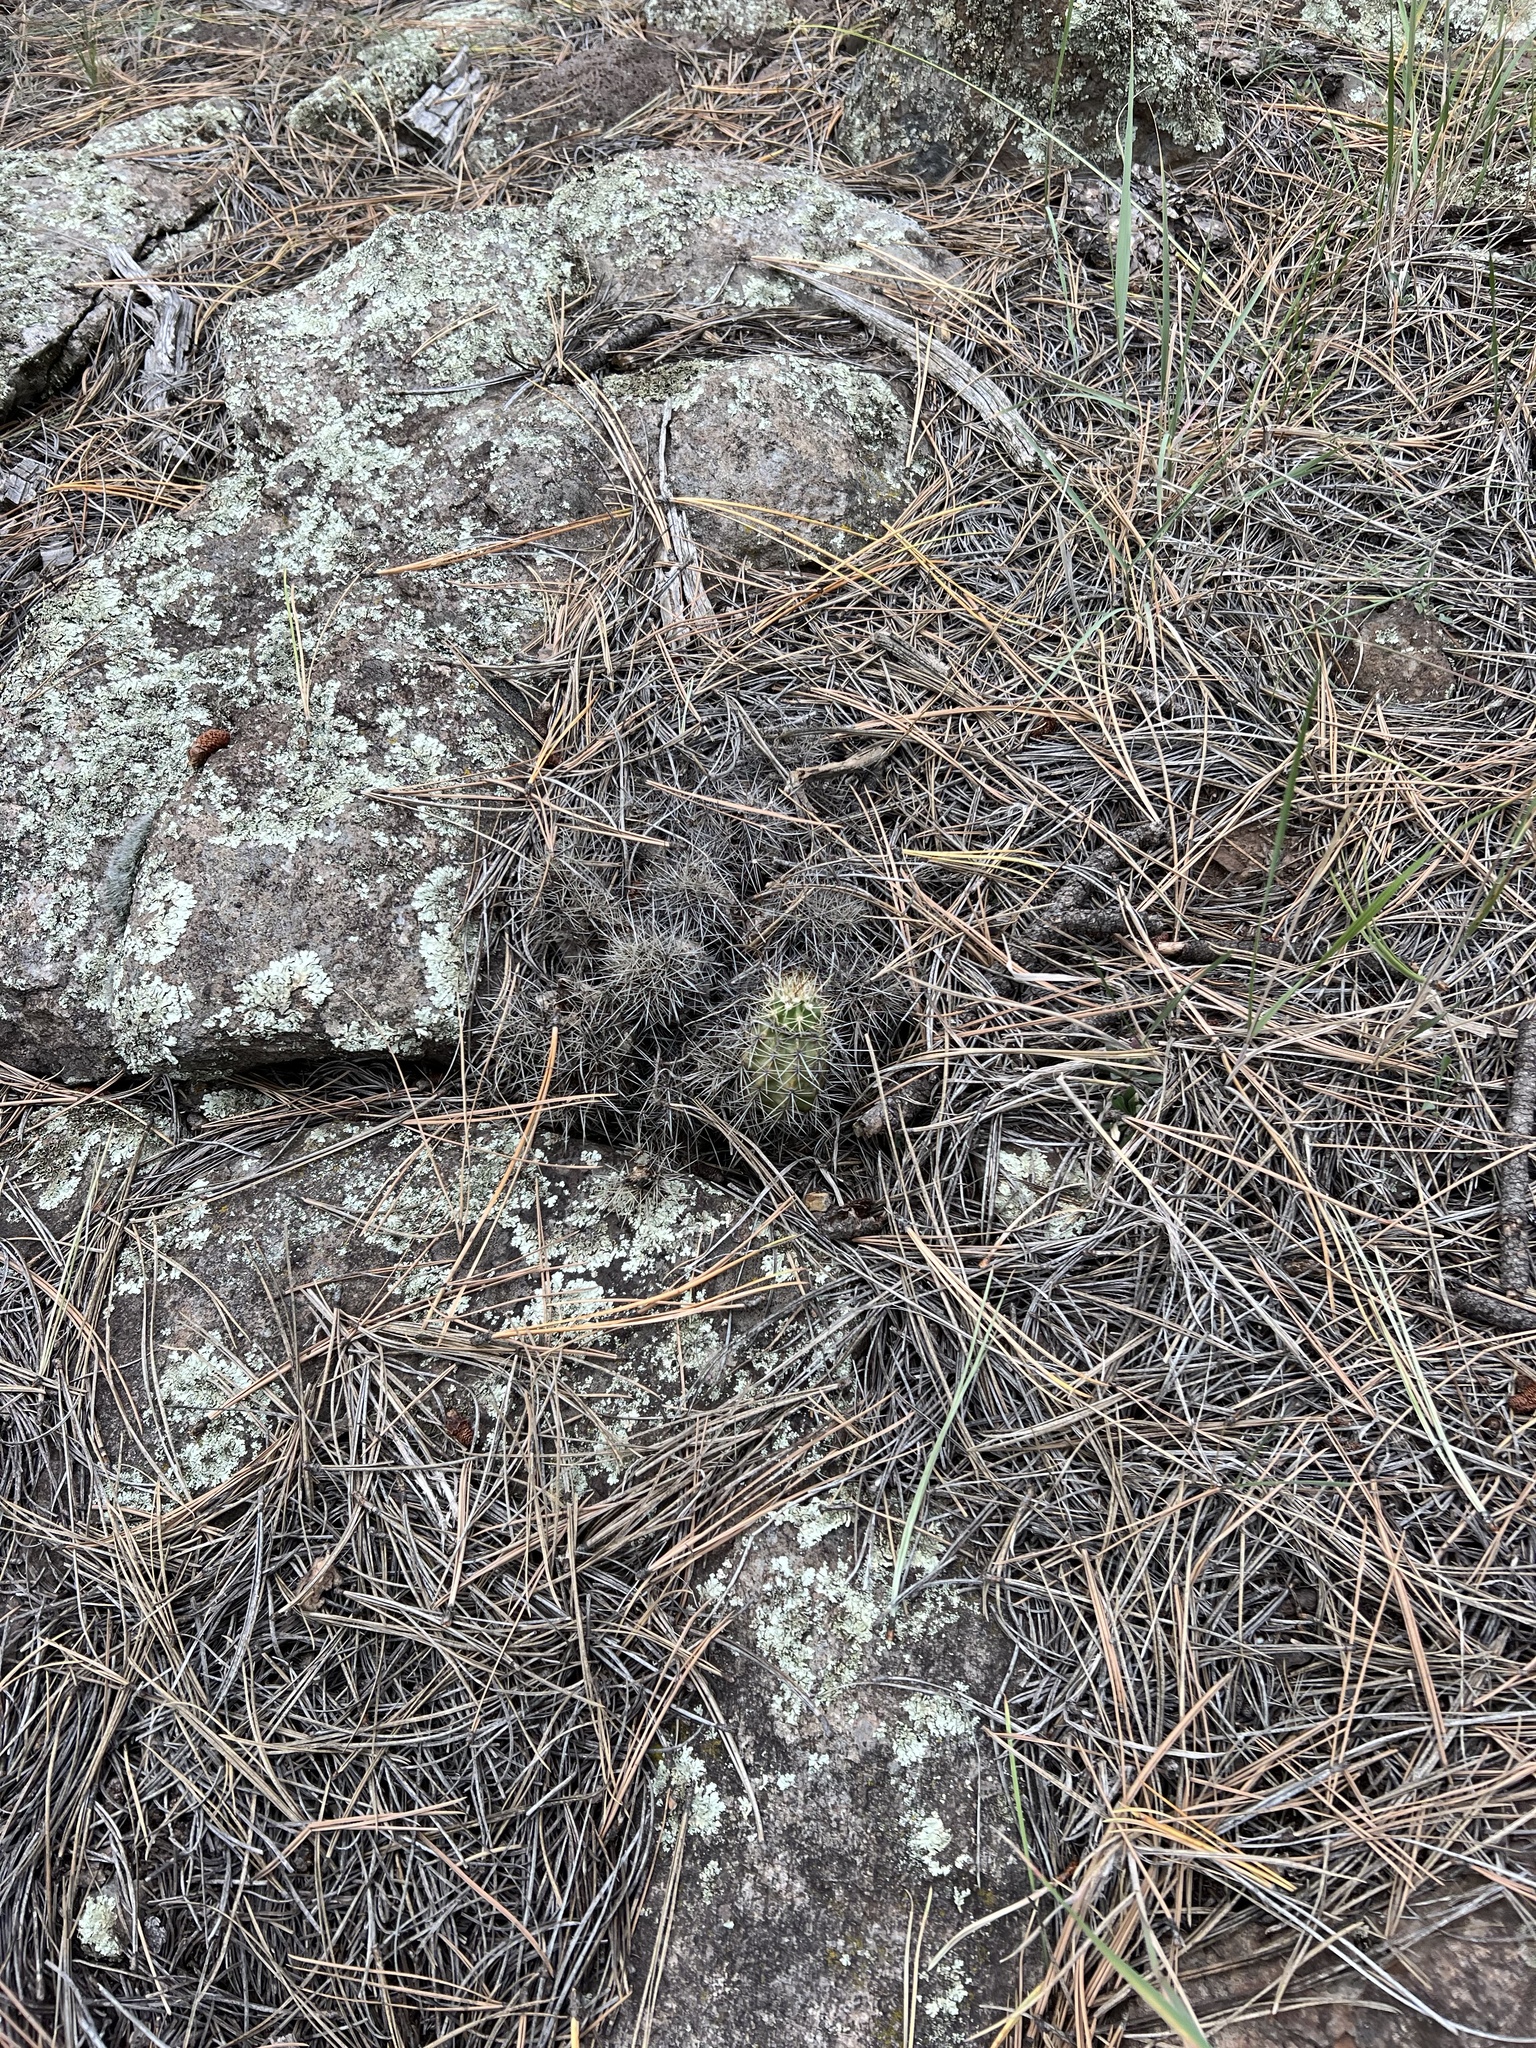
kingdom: Plantae
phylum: Tracheophyta
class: Magnoliopsida
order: Caryophyllales
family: Cactaceae
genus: Echinocereus
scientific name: Echinocereus bakeri
